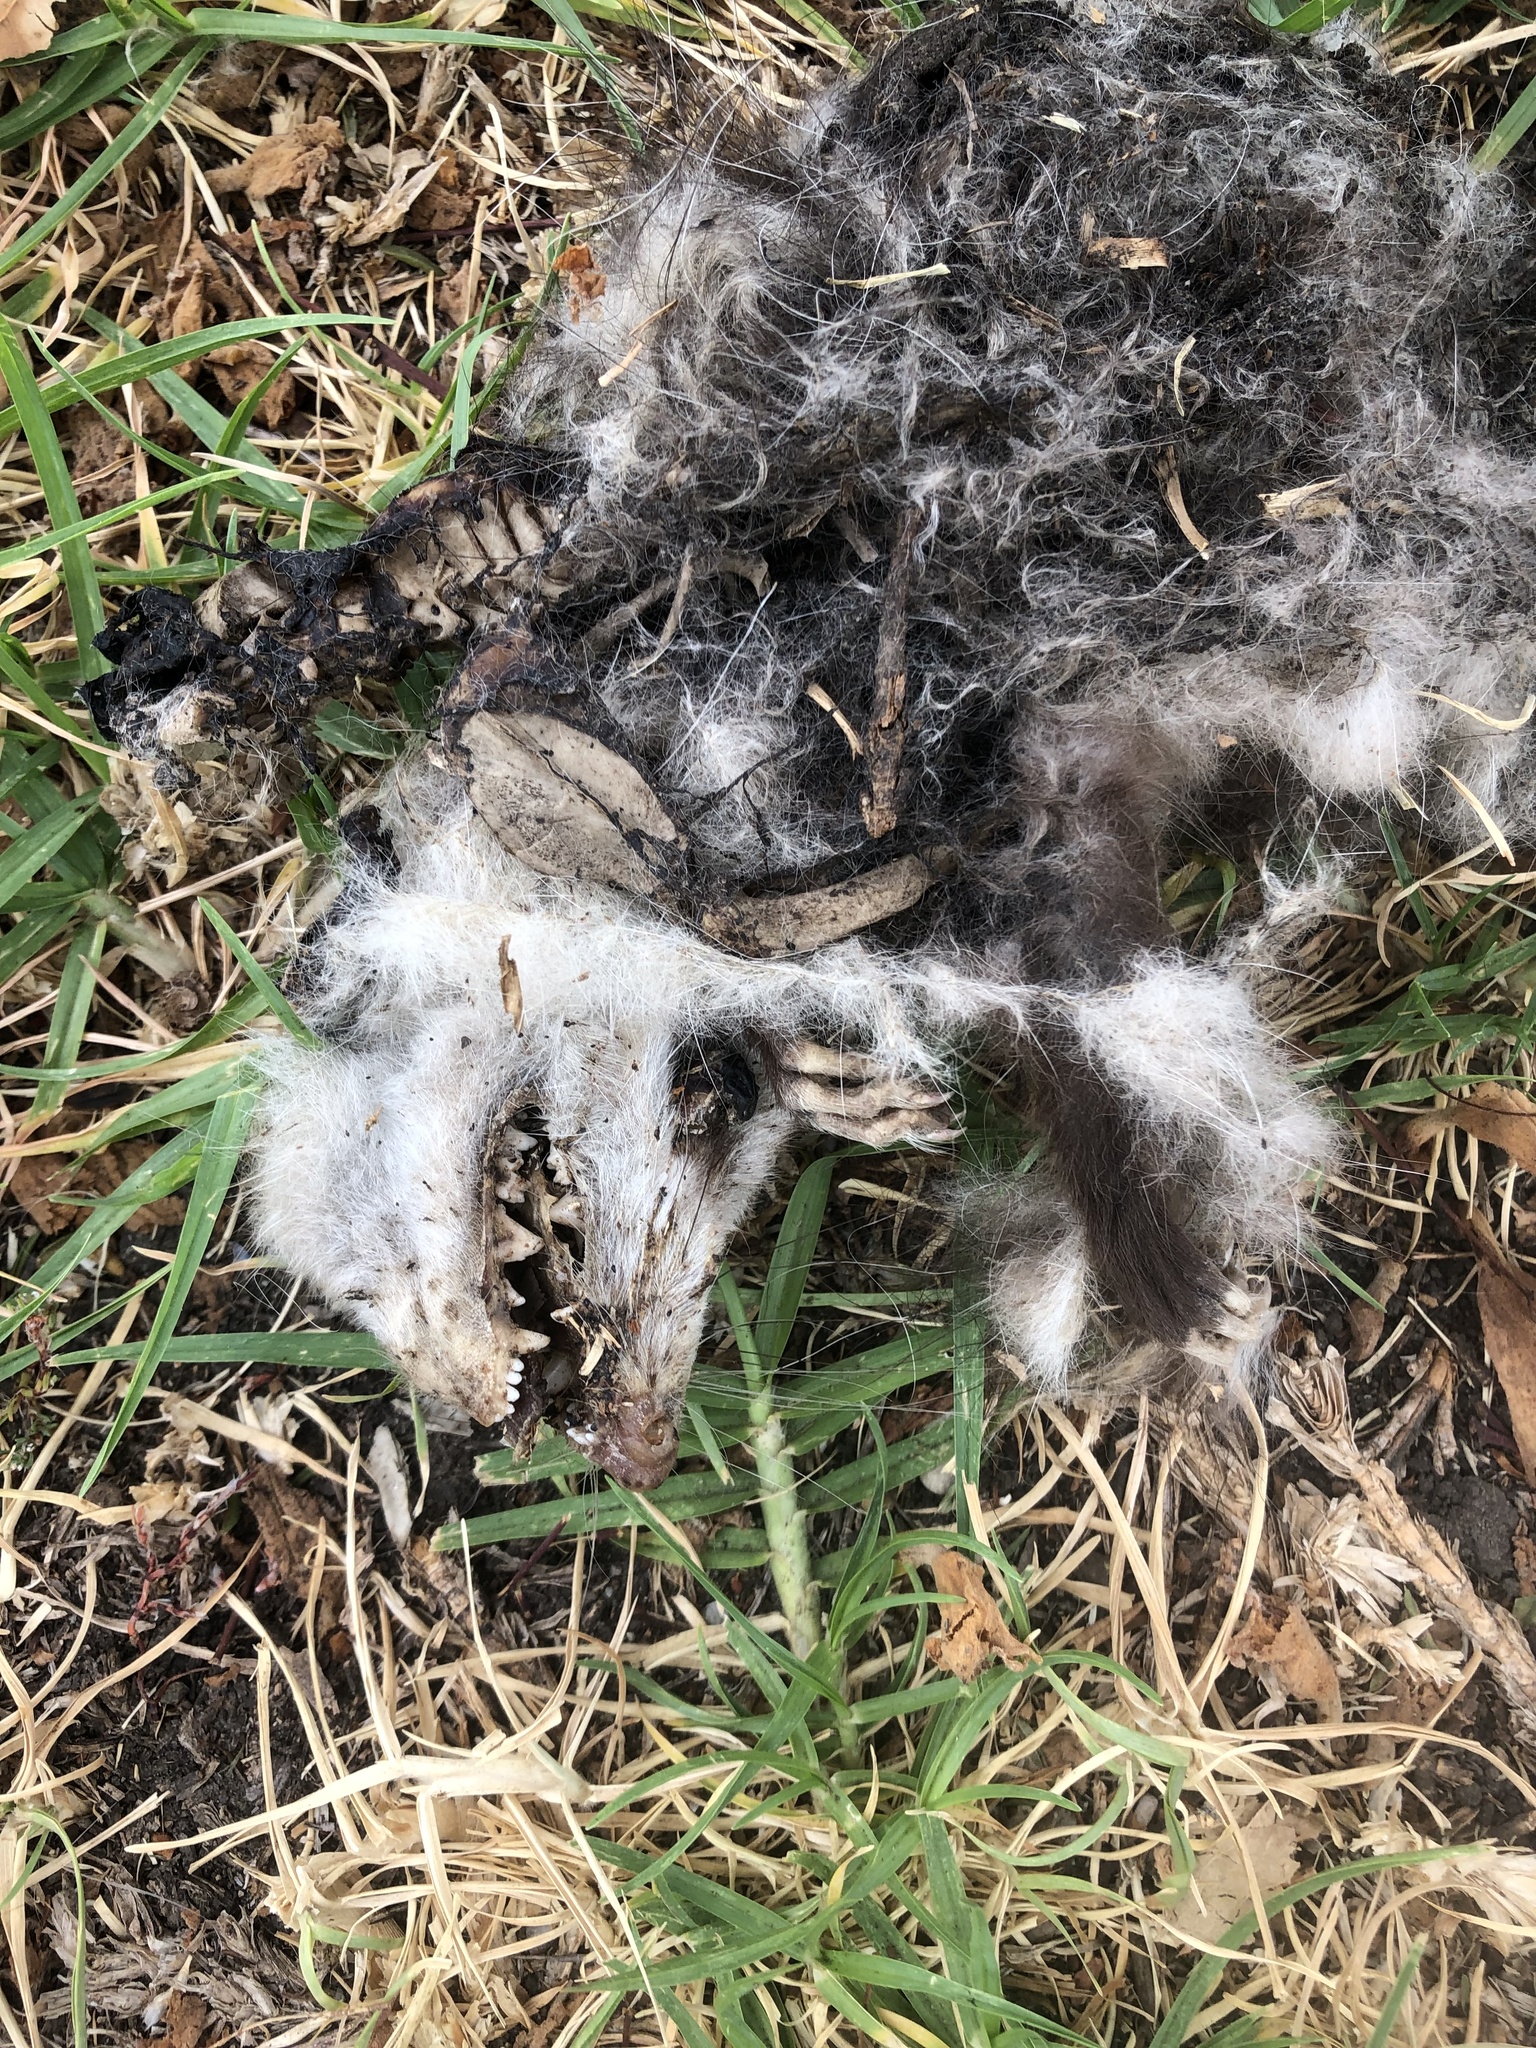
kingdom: Animalia
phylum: Chordata
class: Mammalia
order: Didelphimorphia
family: Didelphidae
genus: Didelphis
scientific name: Didelphis virginiana
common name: Virginia opossum
